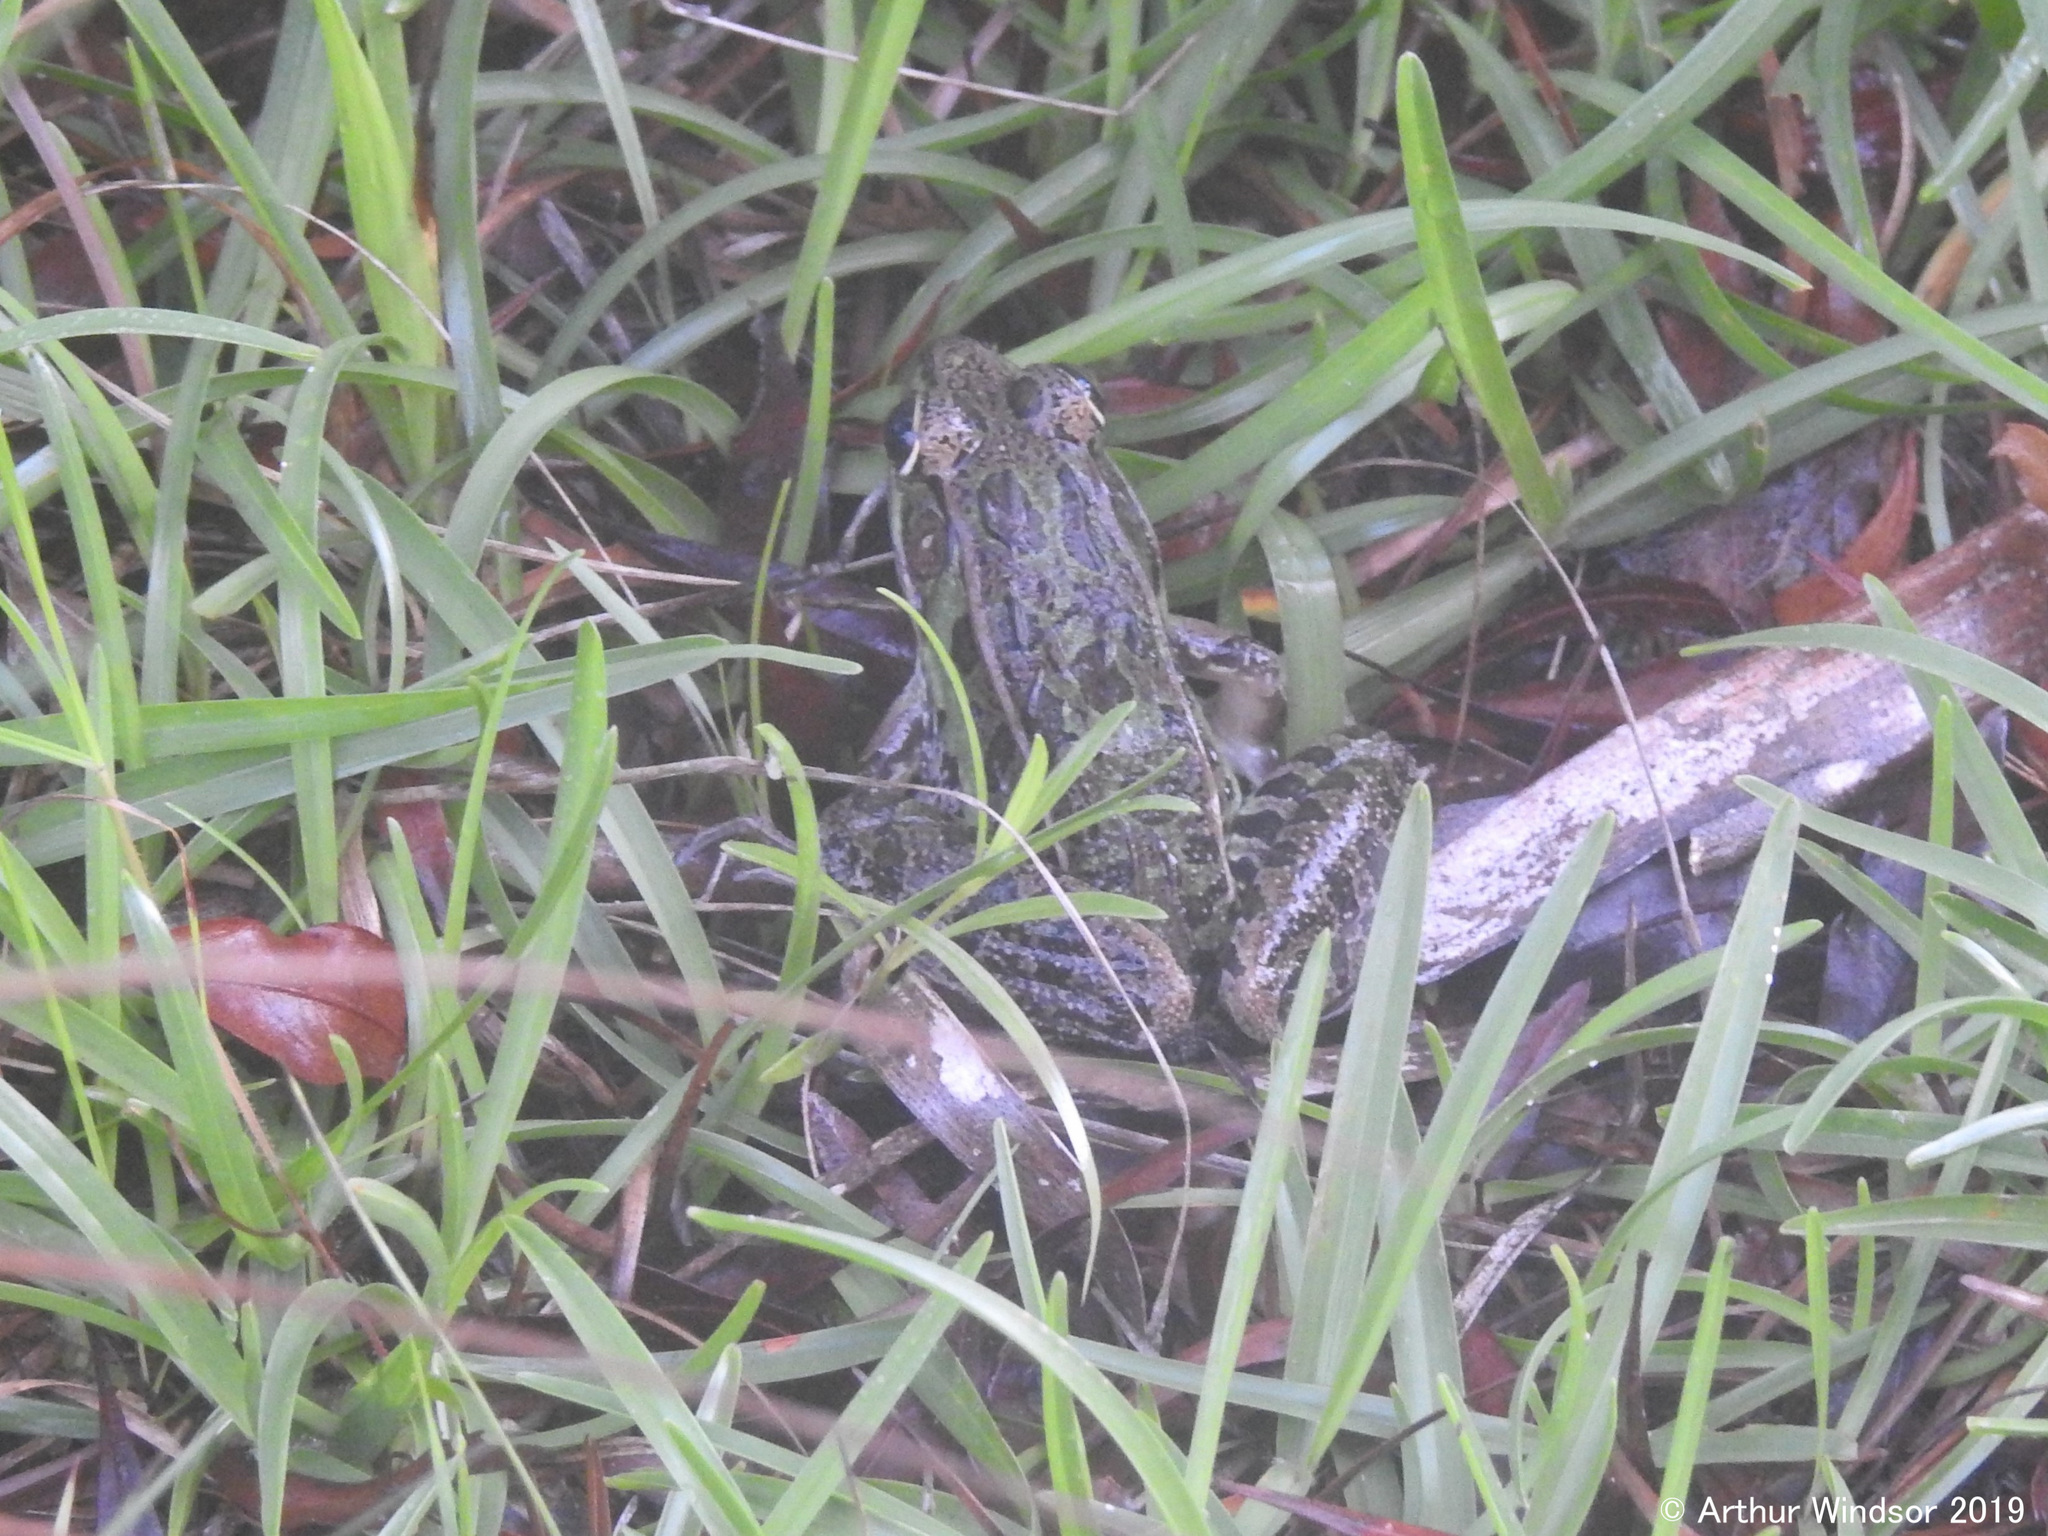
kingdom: Animalia
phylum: Chordata
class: Amphibia
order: Anura
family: Ranidae
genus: Lithobates
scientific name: Lithobates sphenocephalus
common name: Southern leopard frog
